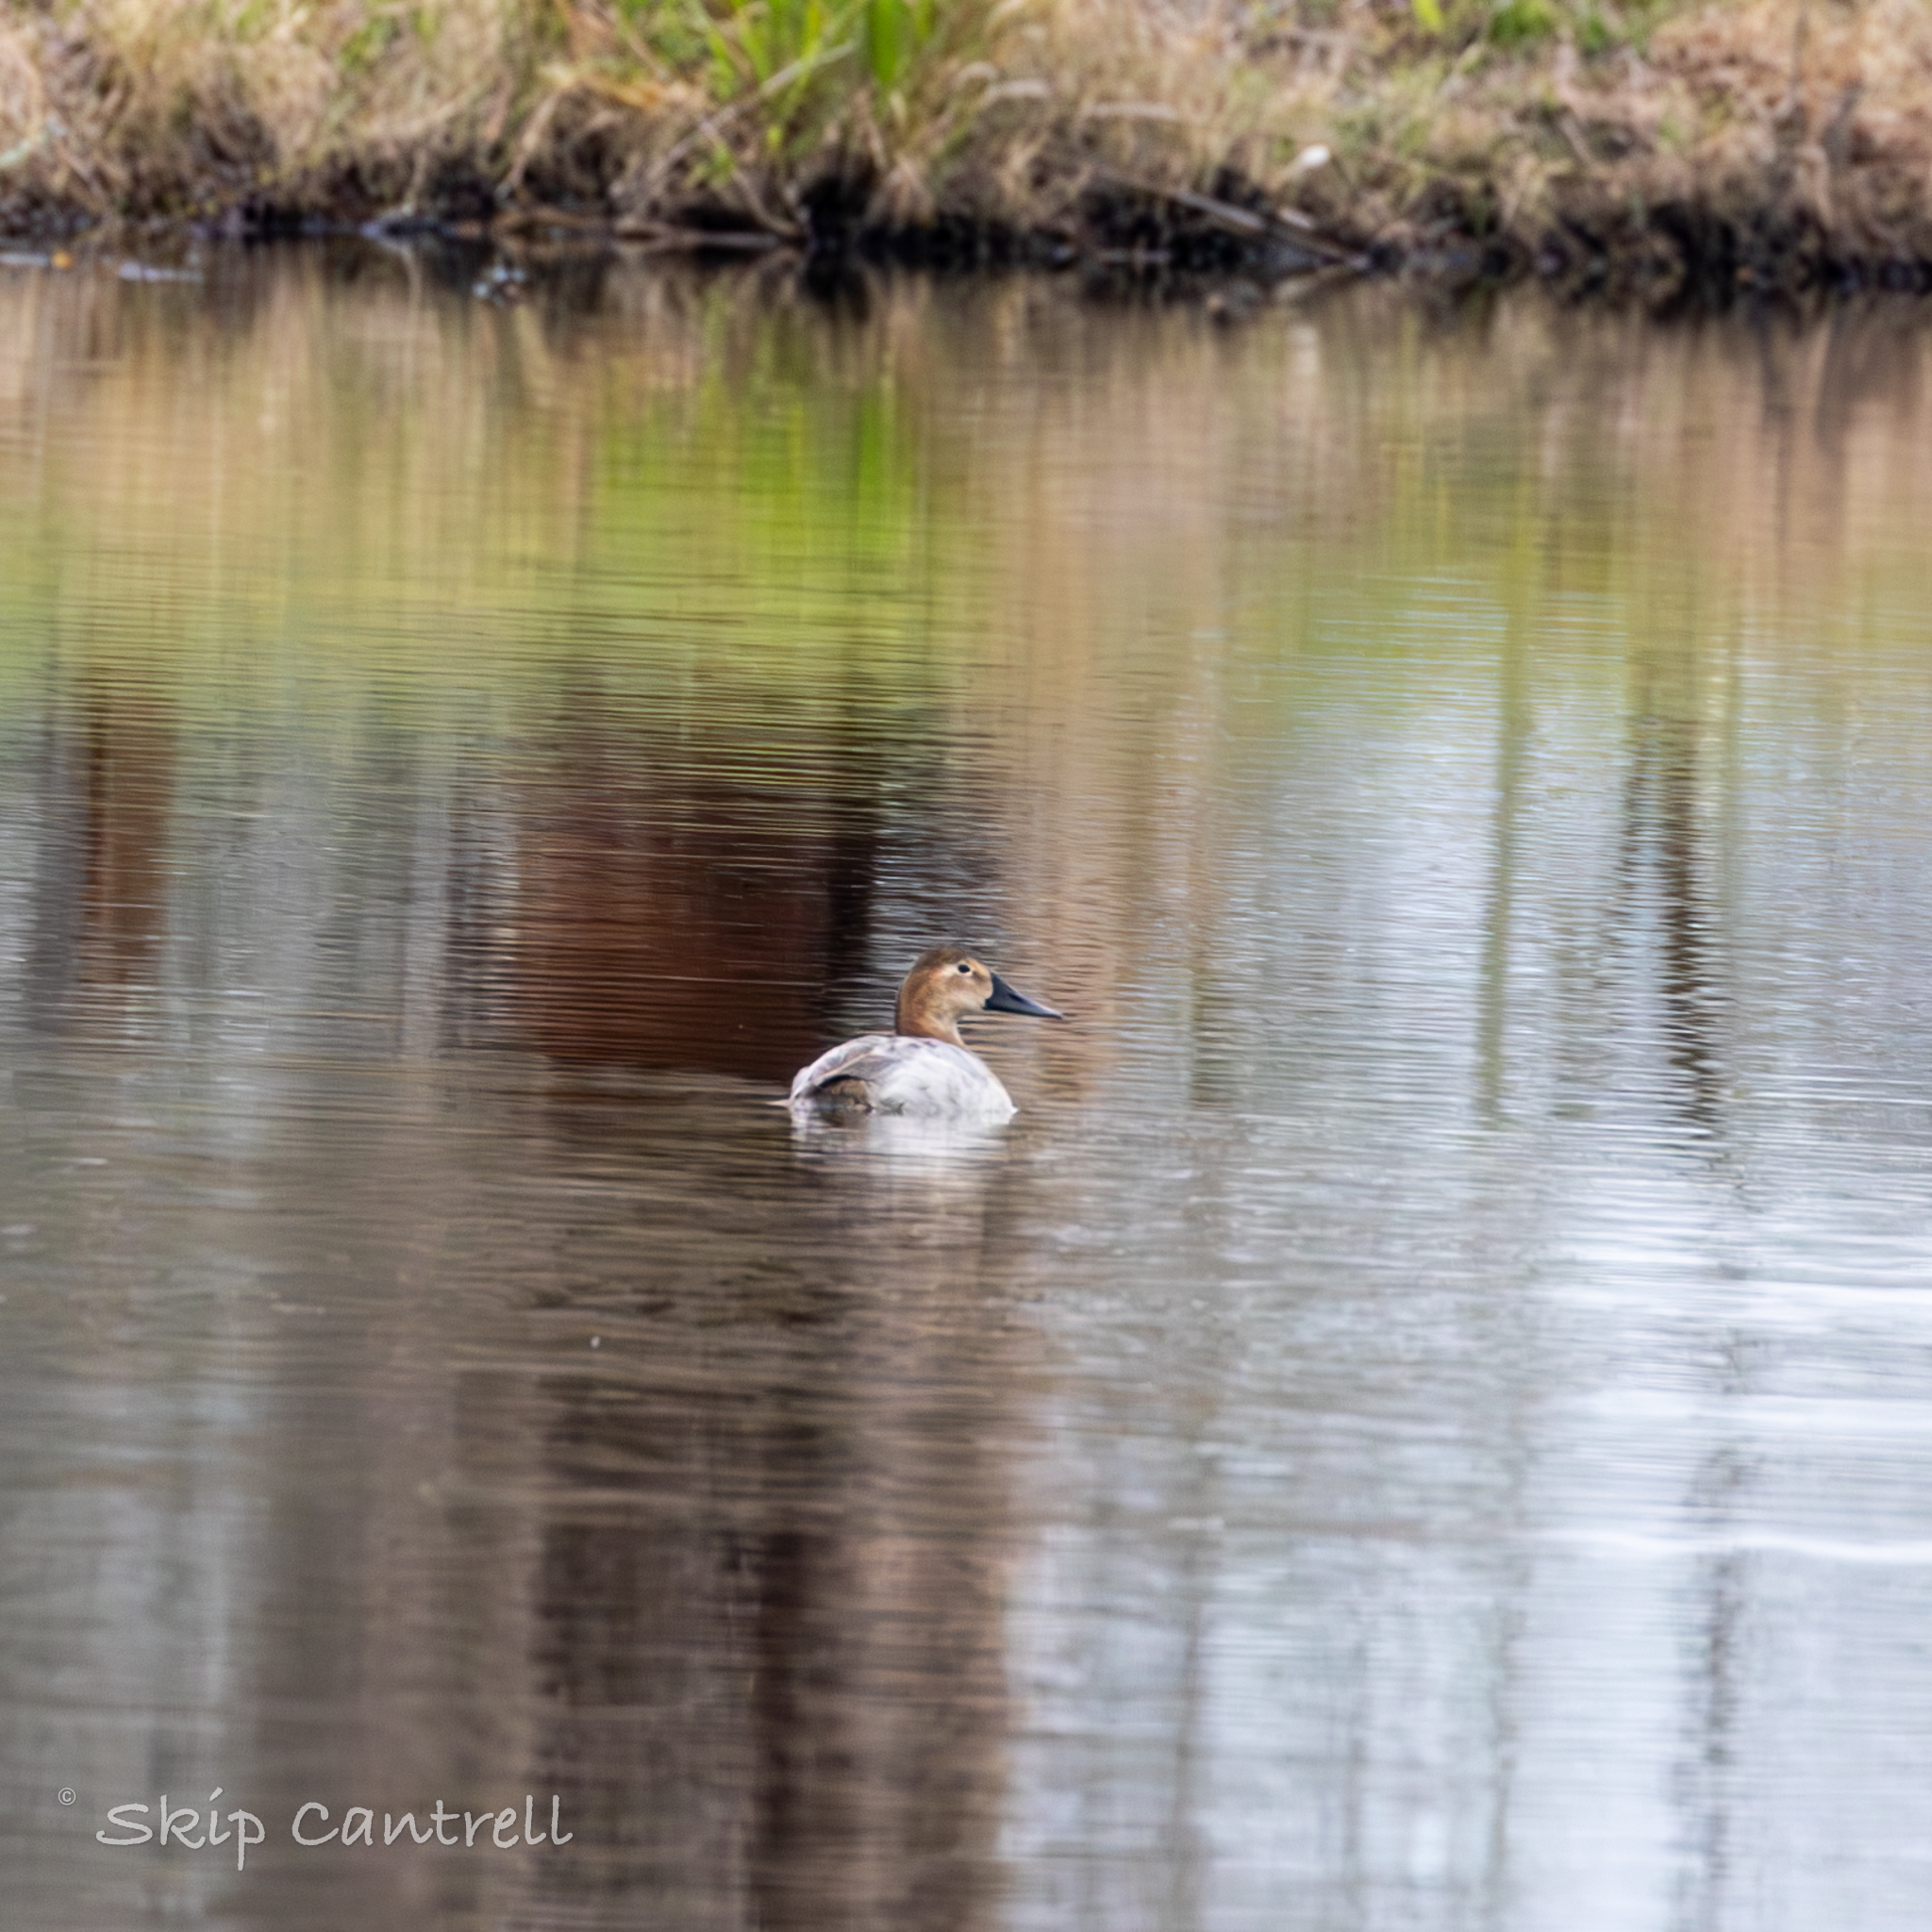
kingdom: Animalia
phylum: Chordata
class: Aves
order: Anseriformes
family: Anatidae
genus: Aythya
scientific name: Aythya valisineria
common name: Canvasback
